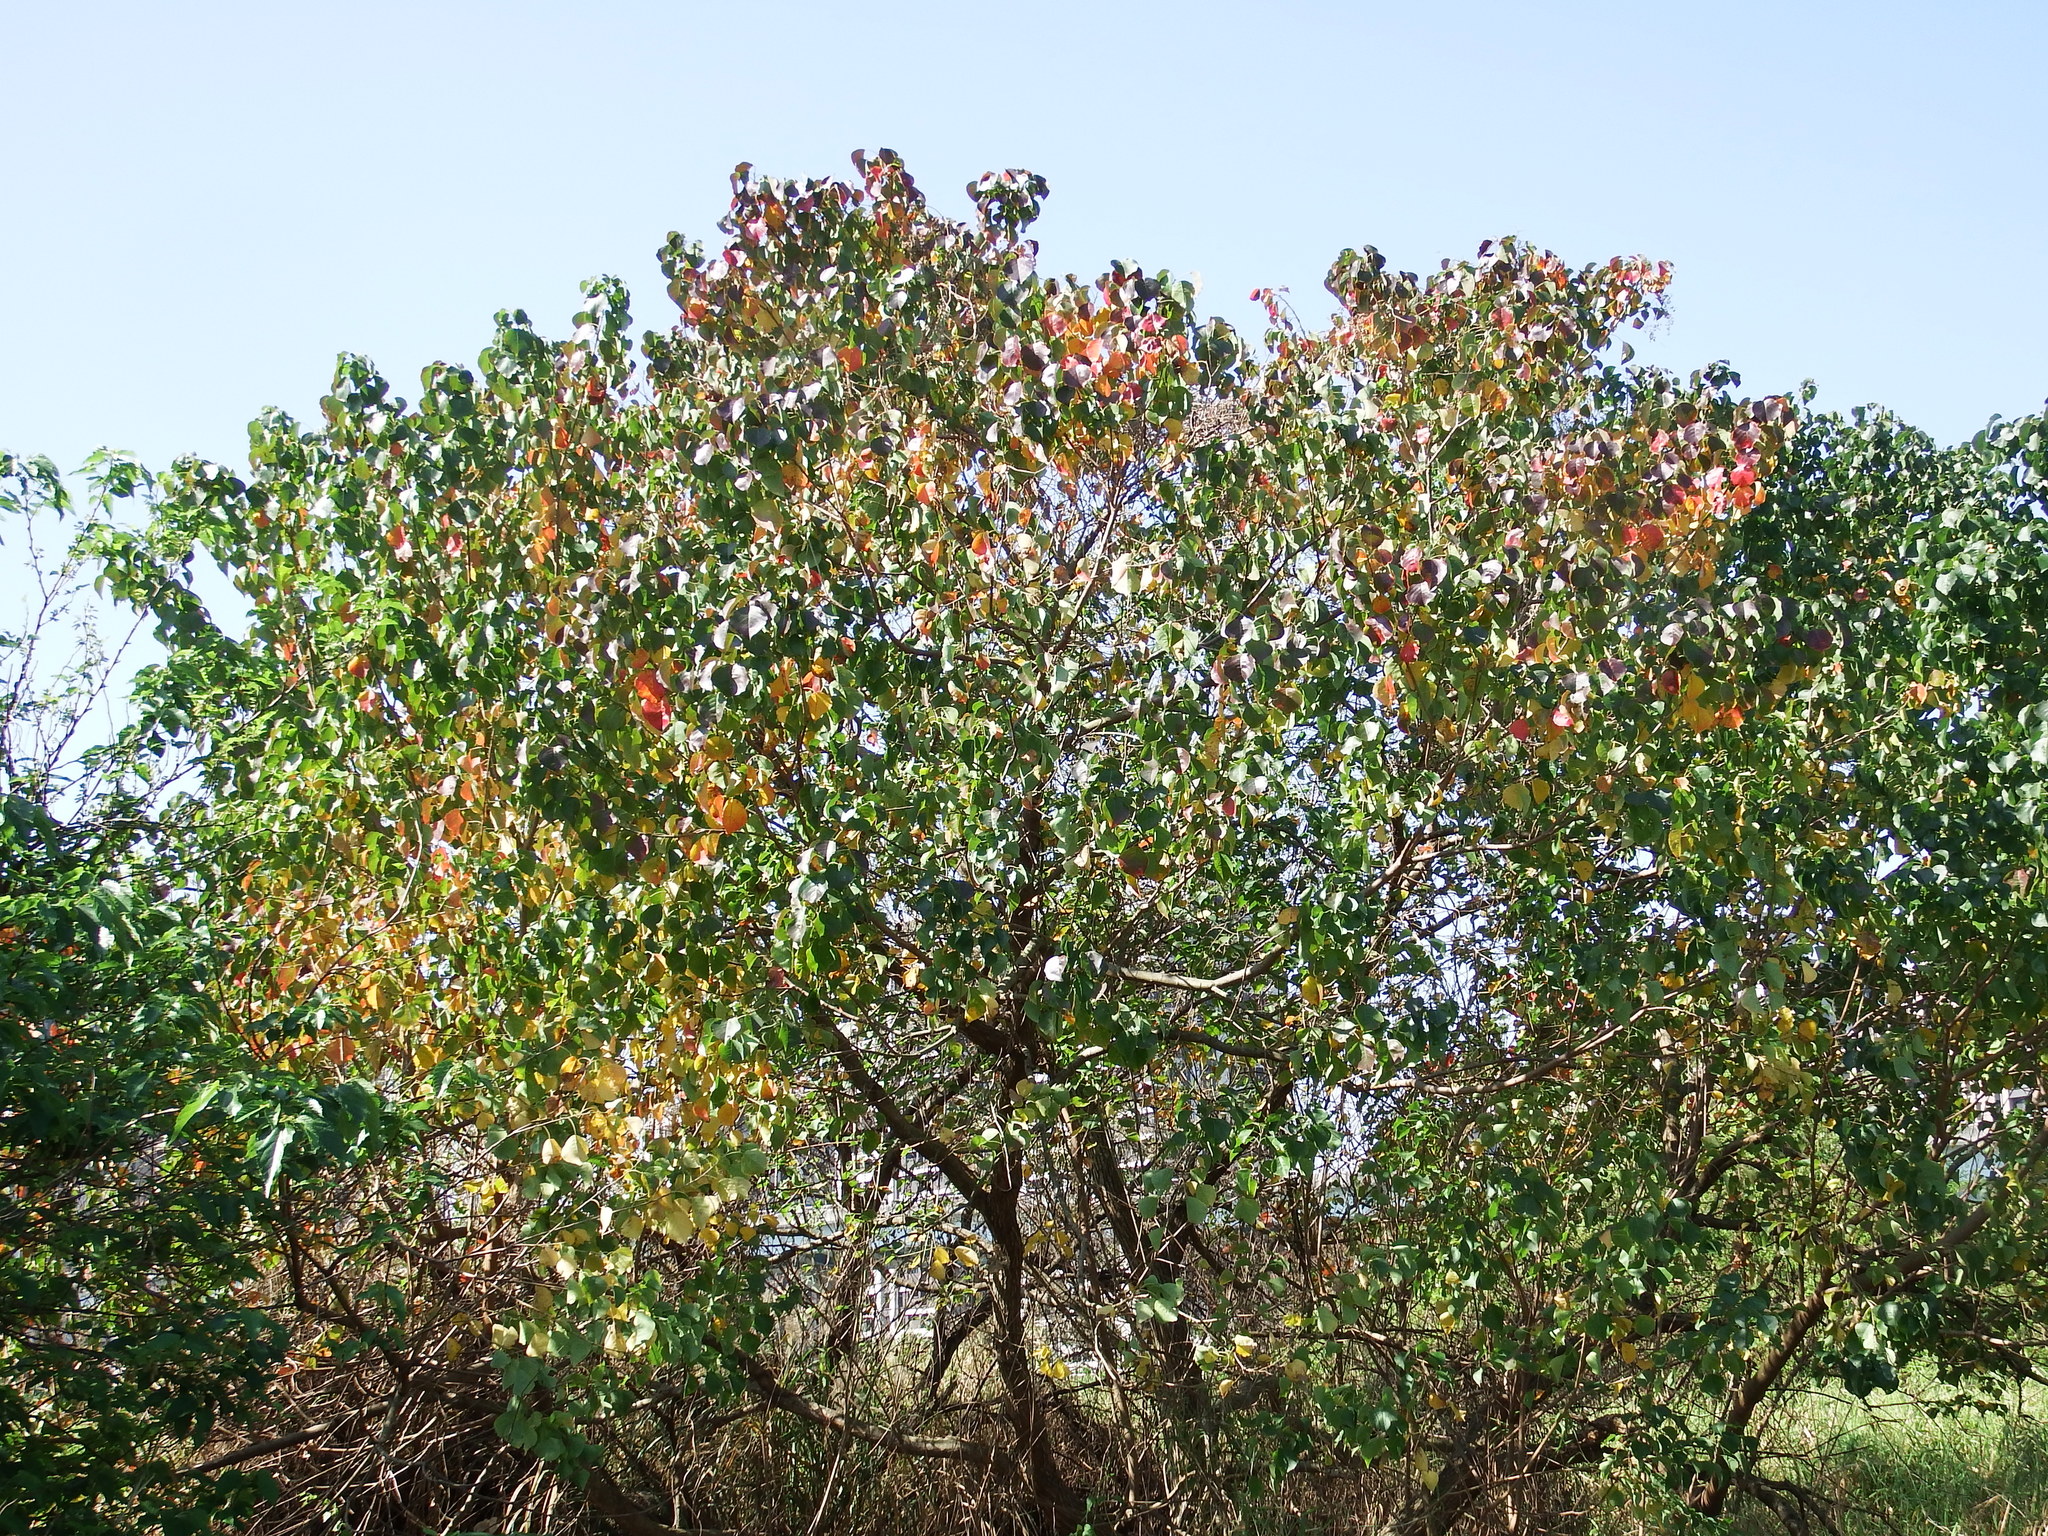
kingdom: Plantae
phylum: Tracheophyta
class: Magnoliopsida
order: Malpighiales
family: Euphorbiaceae
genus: Triadica
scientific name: Triadica sebifera
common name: Chinese tallow
